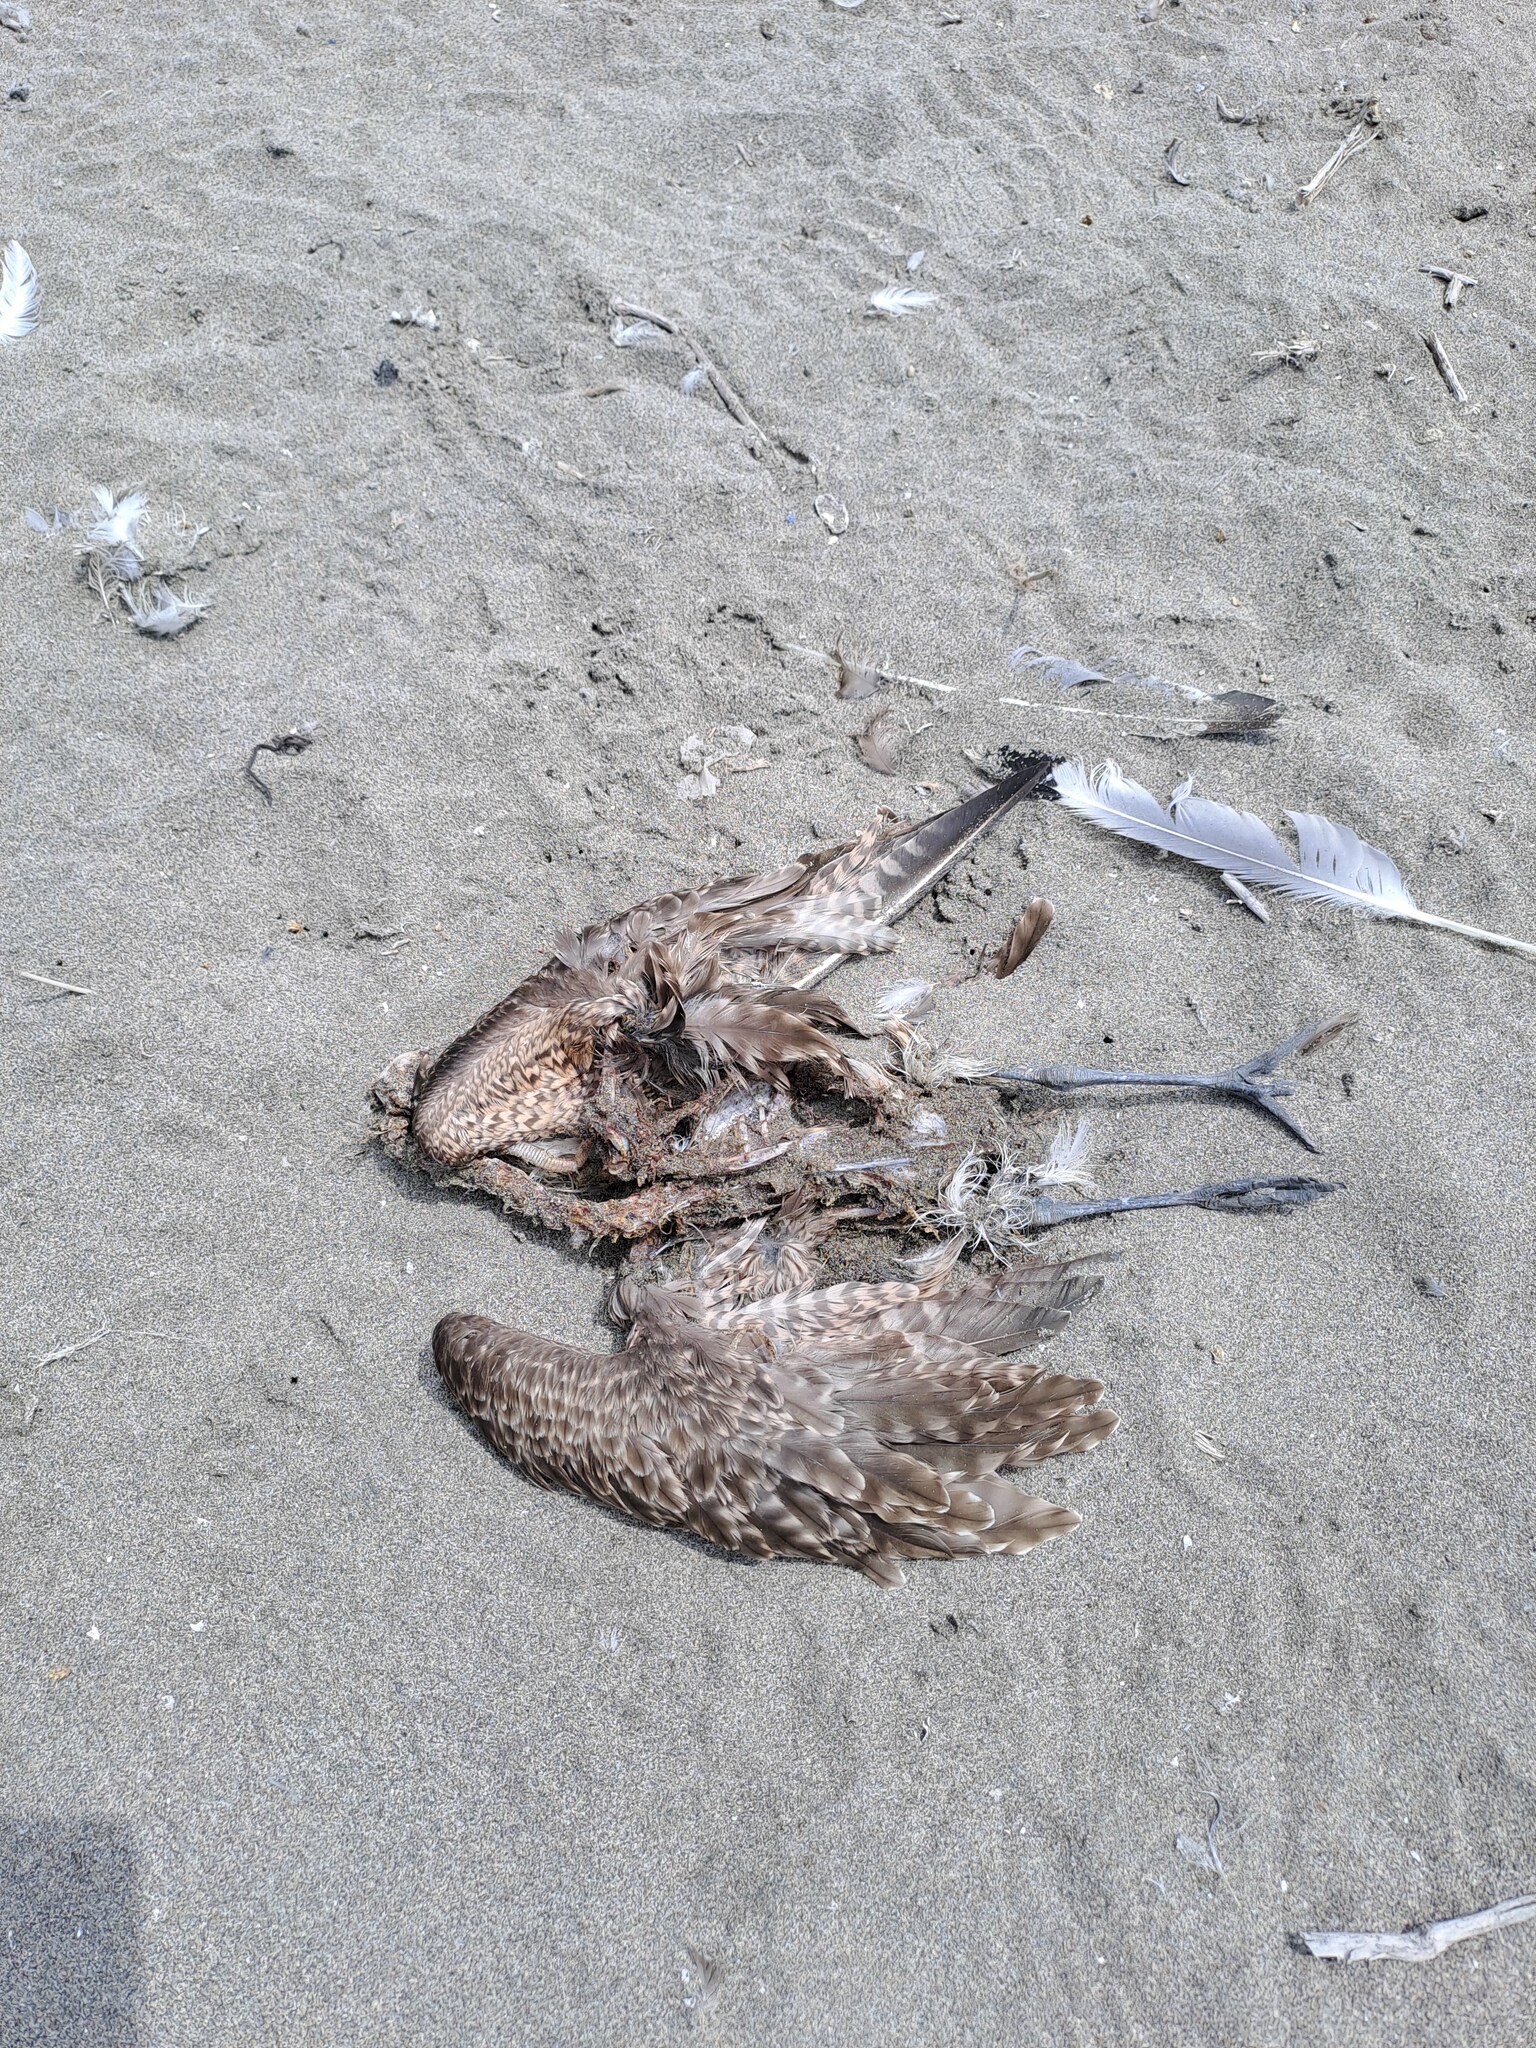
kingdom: Animalia
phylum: Chordata
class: Aves
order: Charadriiformes
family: Scolopacidae
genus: Numenius
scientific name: Numenius phaeopus
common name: Whimbrel
